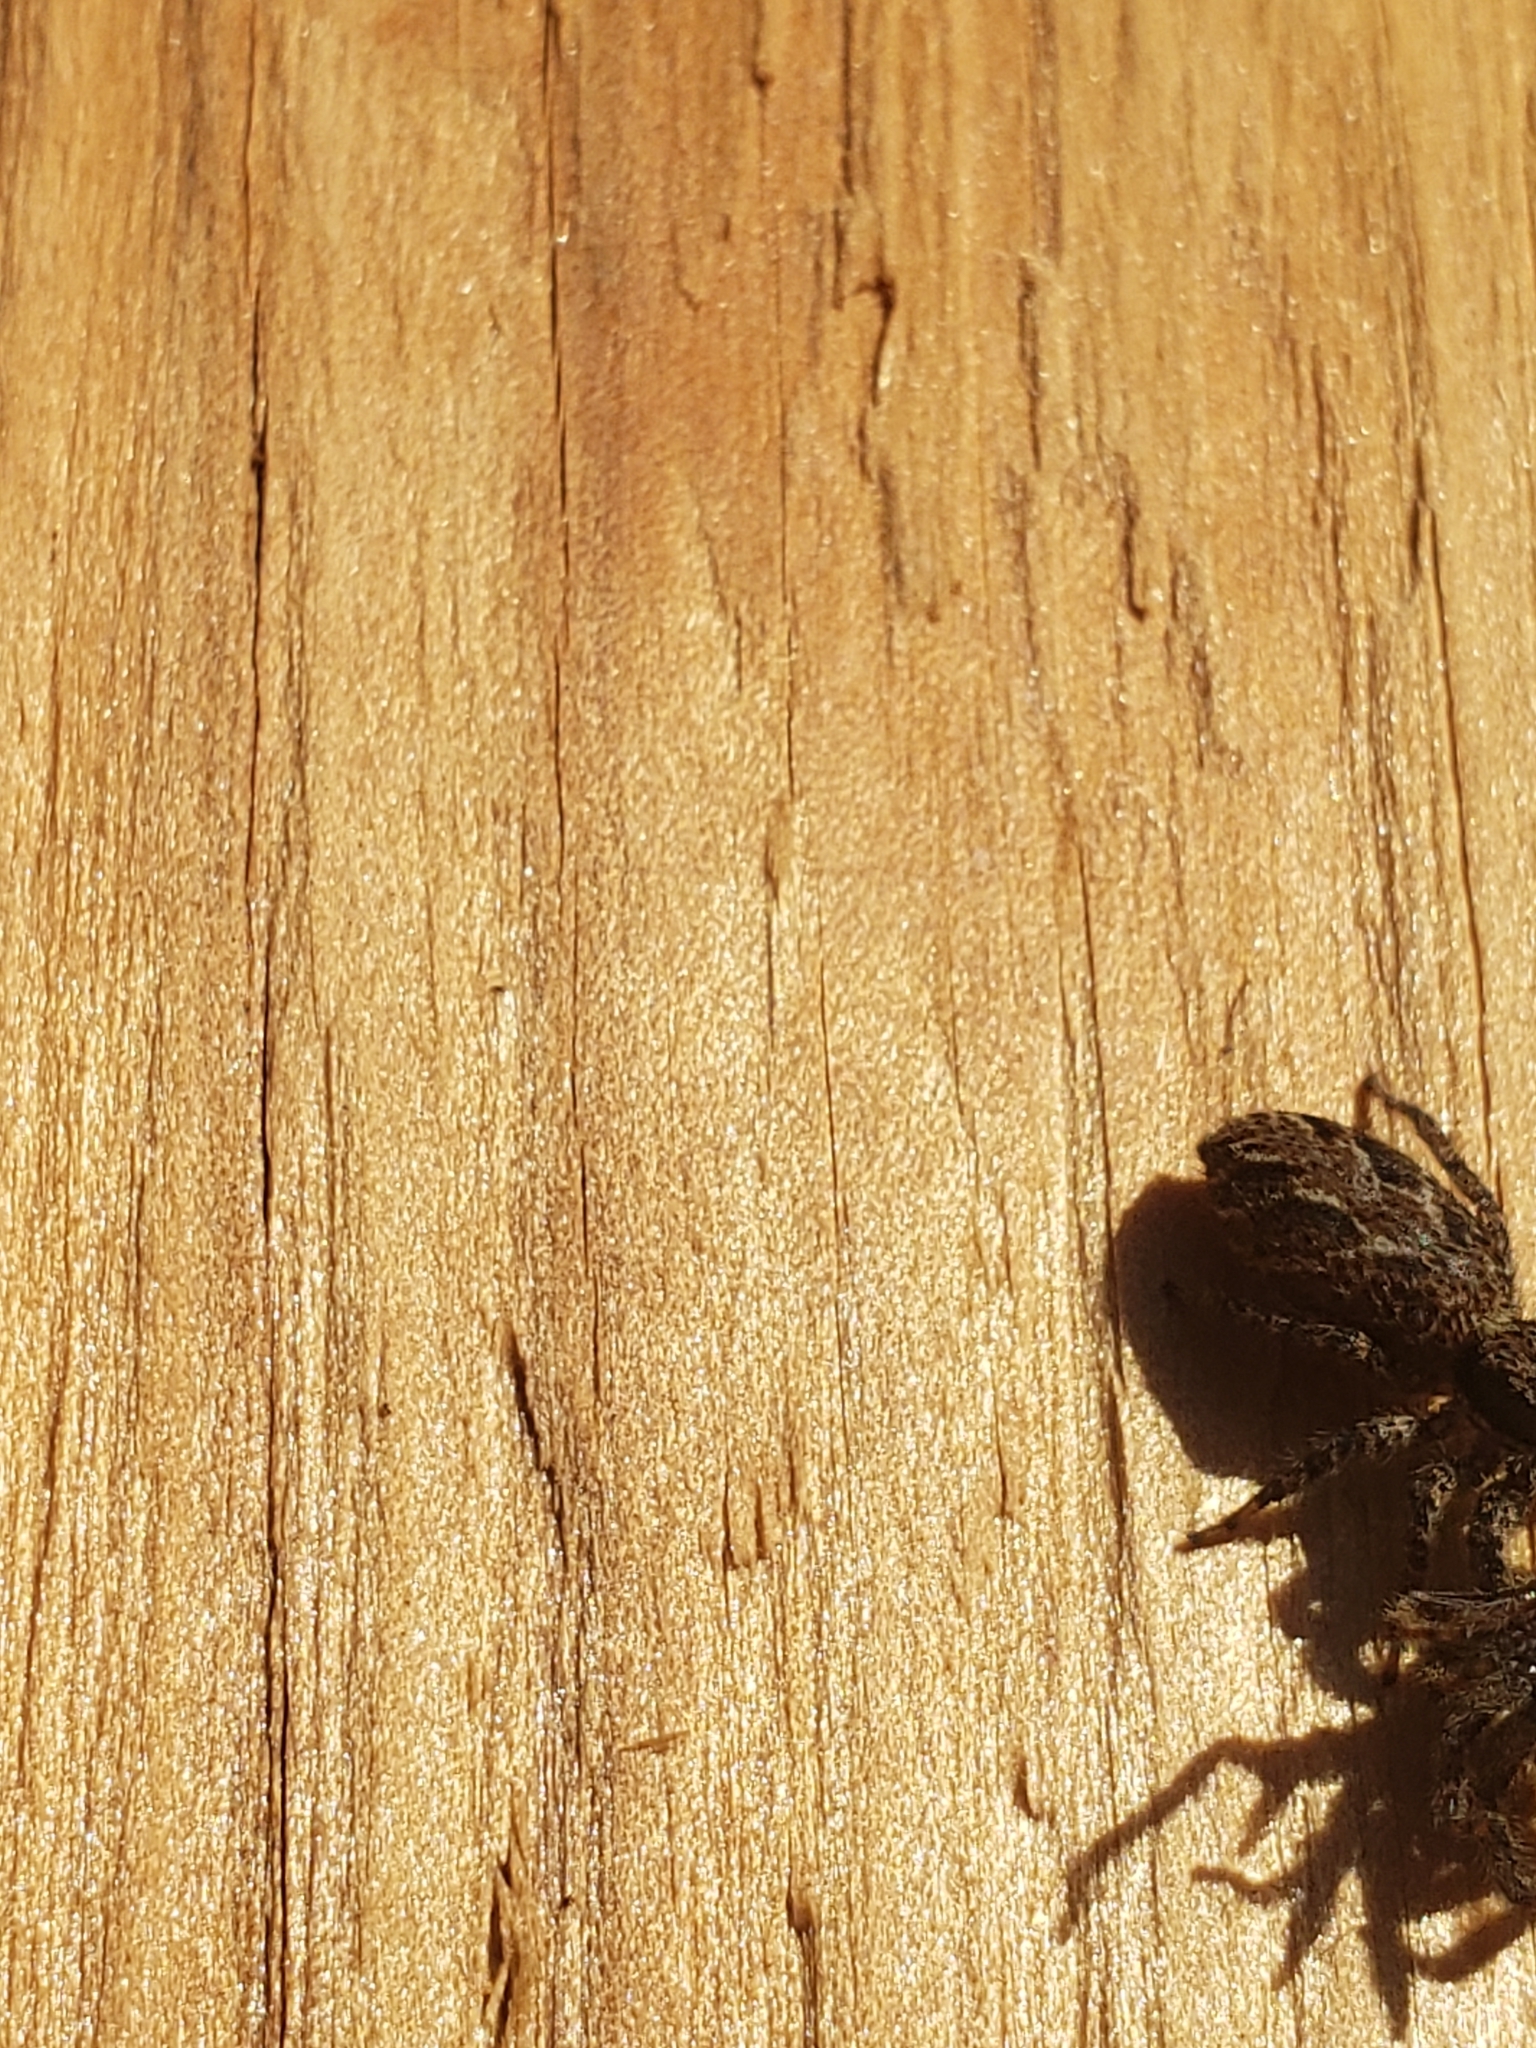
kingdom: Animalia
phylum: Arthropoda
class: Arachnida
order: Araneae
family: Salticidae
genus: Platycryptus
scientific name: Platycryptus californicus
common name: Jumping spiders
